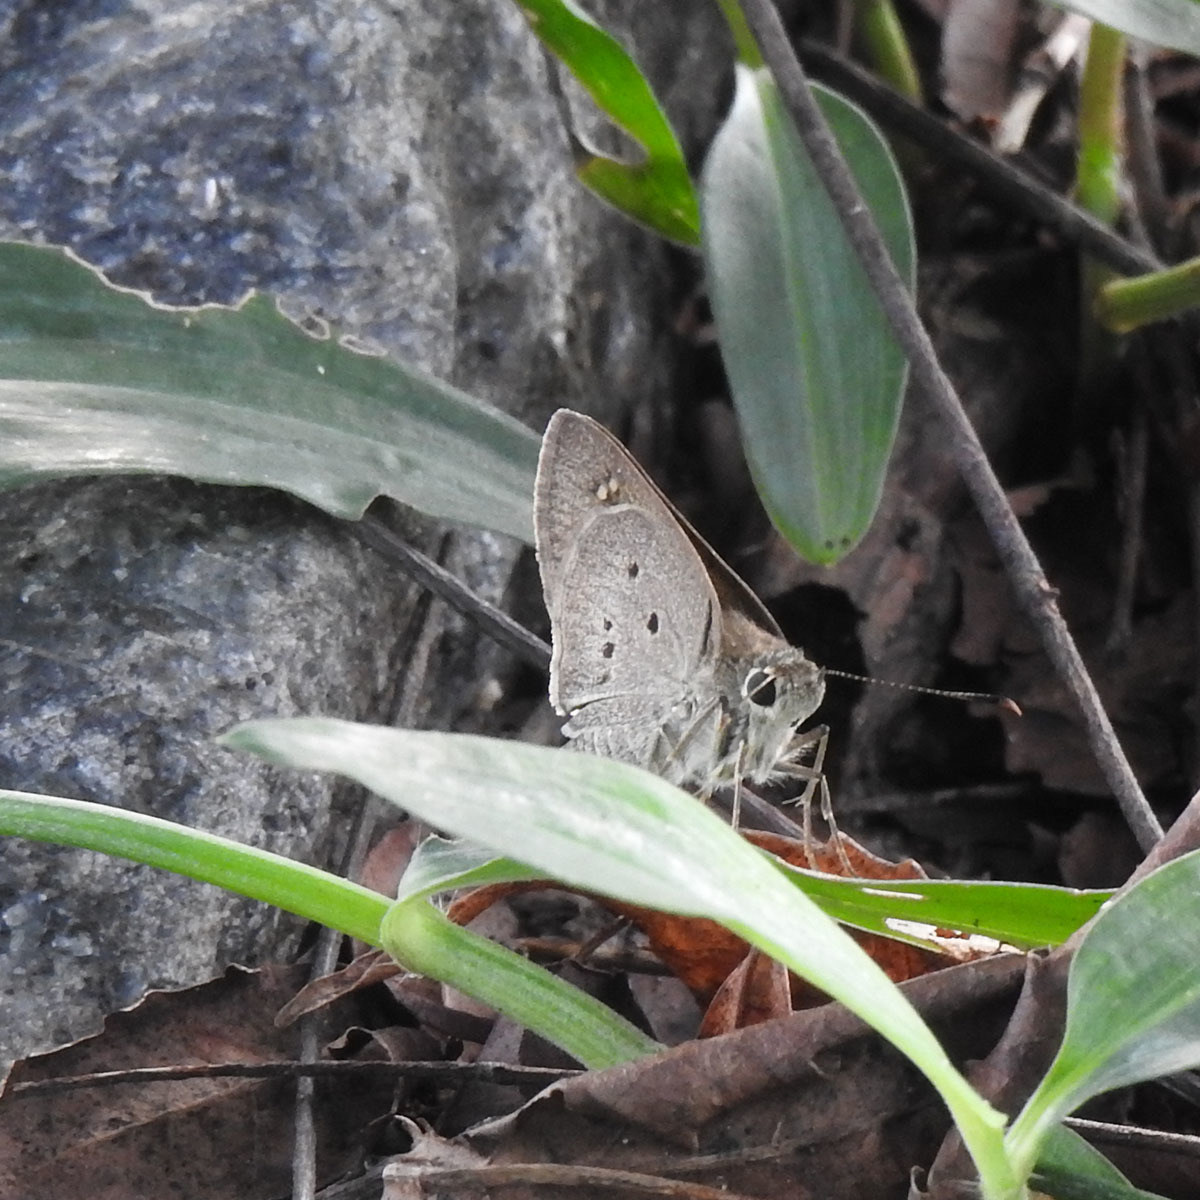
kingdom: Animalia
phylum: Arthropoda
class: Insecta
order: Lepidoptera
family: Hesperiidae
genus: Suastus
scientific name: Suastus gremius
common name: Indian palm bob
